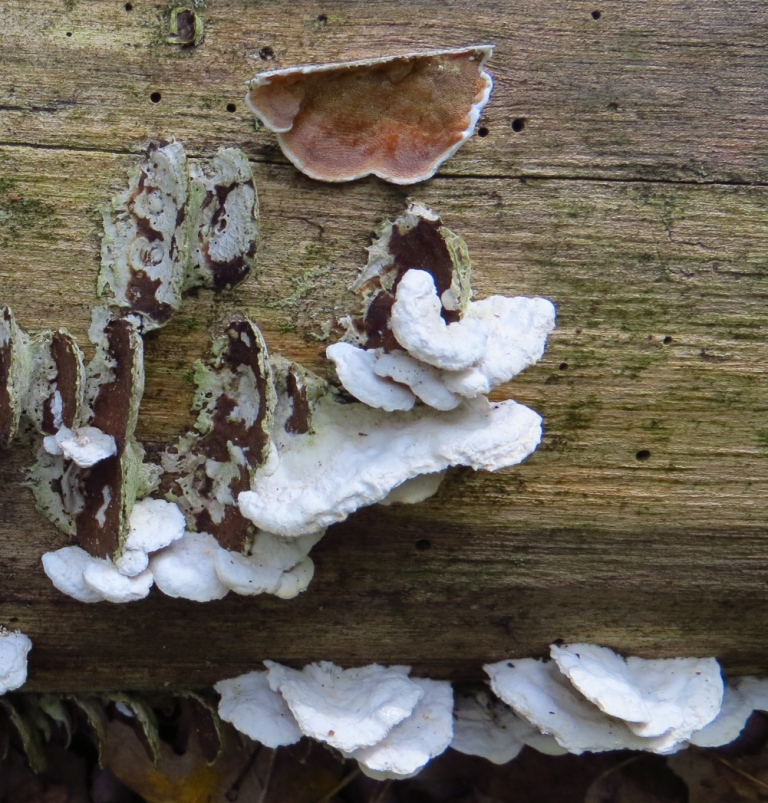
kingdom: Fungi
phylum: Basidiomycota
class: Agaricomycetes
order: Polyporales
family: Irpicaceae
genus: Vitreoporus
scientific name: Vitreoporus dichrous
